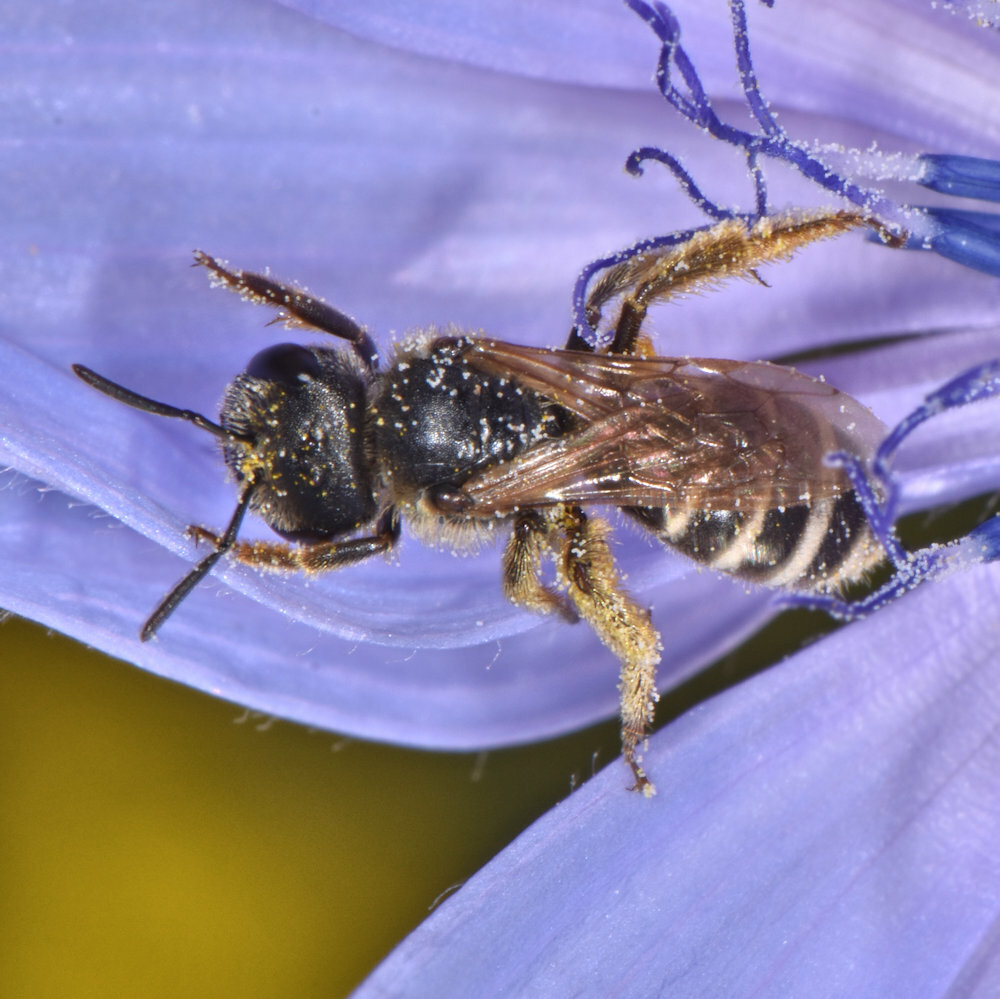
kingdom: Animalia
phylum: Arthropoda
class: Insecta
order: Hymenoptera
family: Halictidae
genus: Halictus
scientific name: Halictus ligatus
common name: Ligated furrow bee
